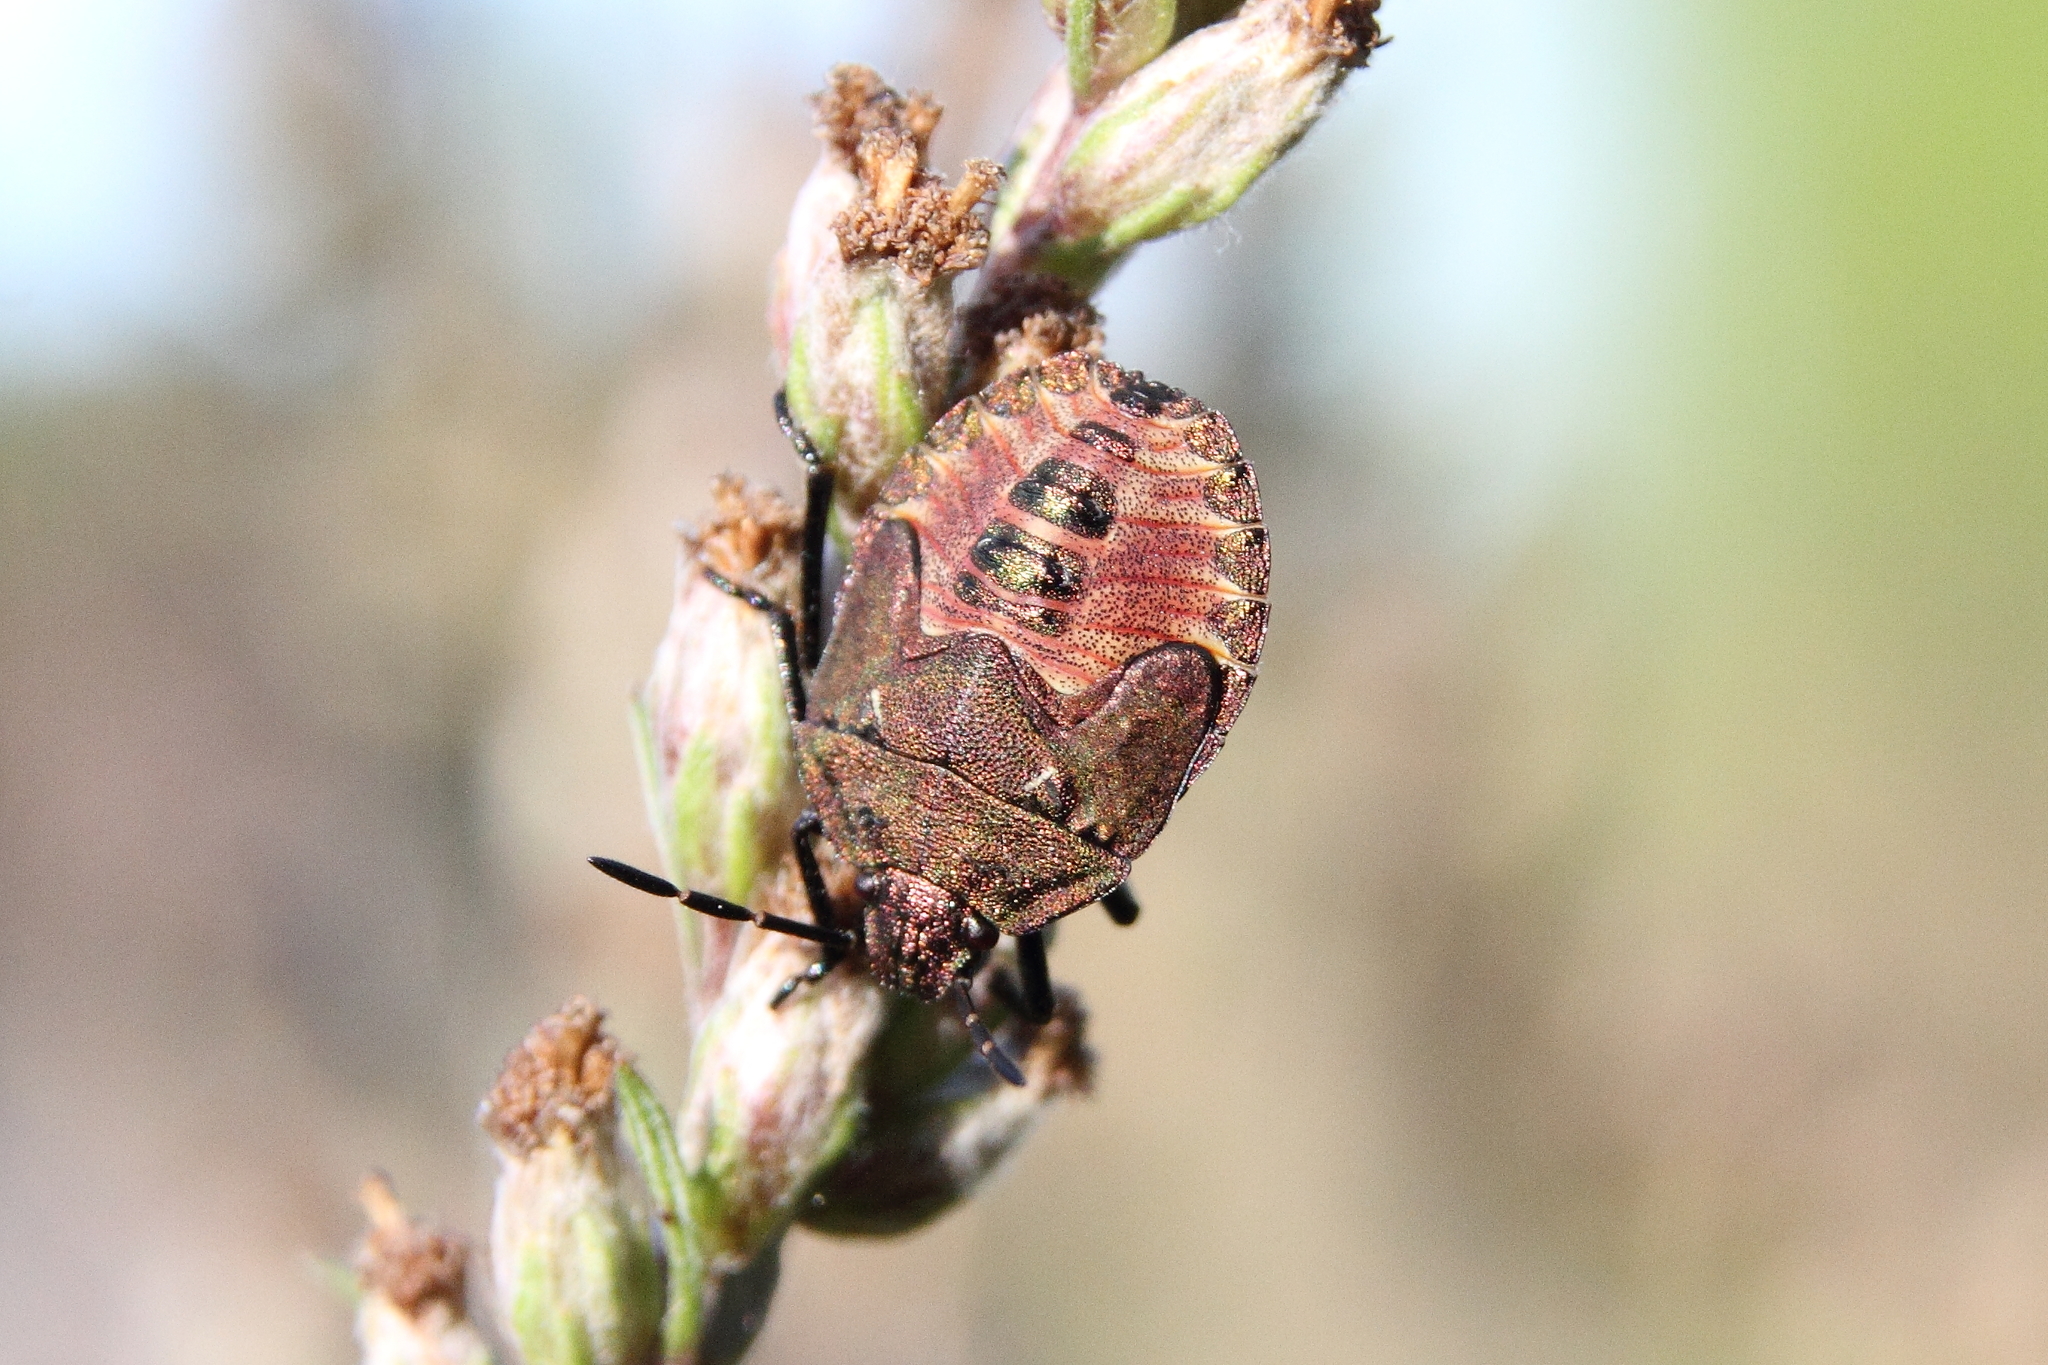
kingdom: Animalia
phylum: Arthropoda
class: Insecta
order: Hemiptera
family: Pentatomidae
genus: Carpocoris
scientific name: Carpocoris purpureipennis
